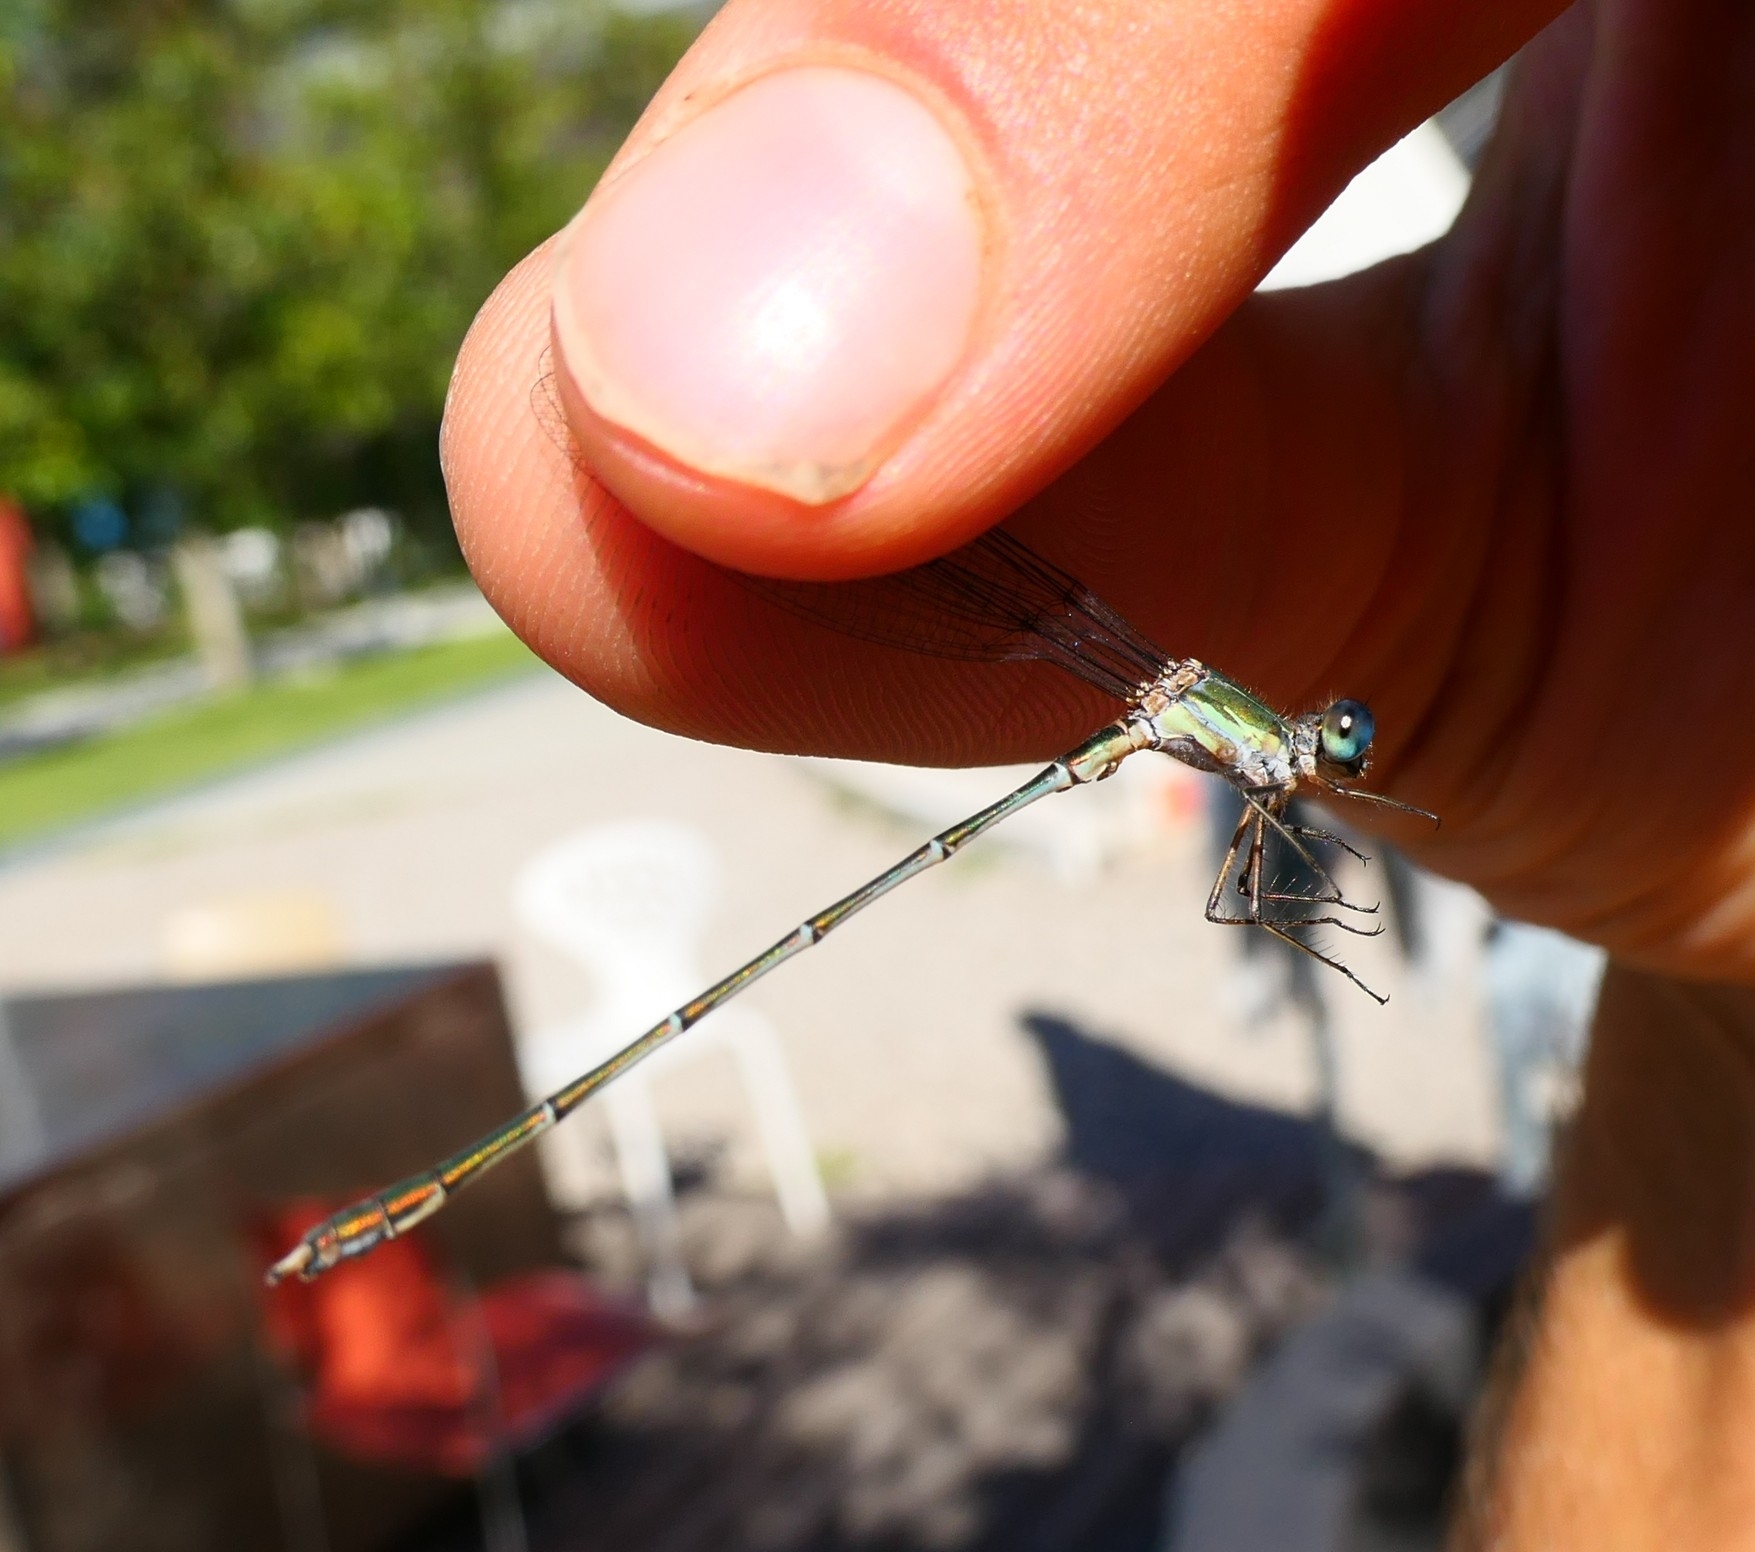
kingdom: Animalia
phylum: Arthropoda
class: Insecta
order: Odonata
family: Lestidae
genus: Chalcolestes
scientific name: Chalcolestes viridis
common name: Green emerald damselfly
